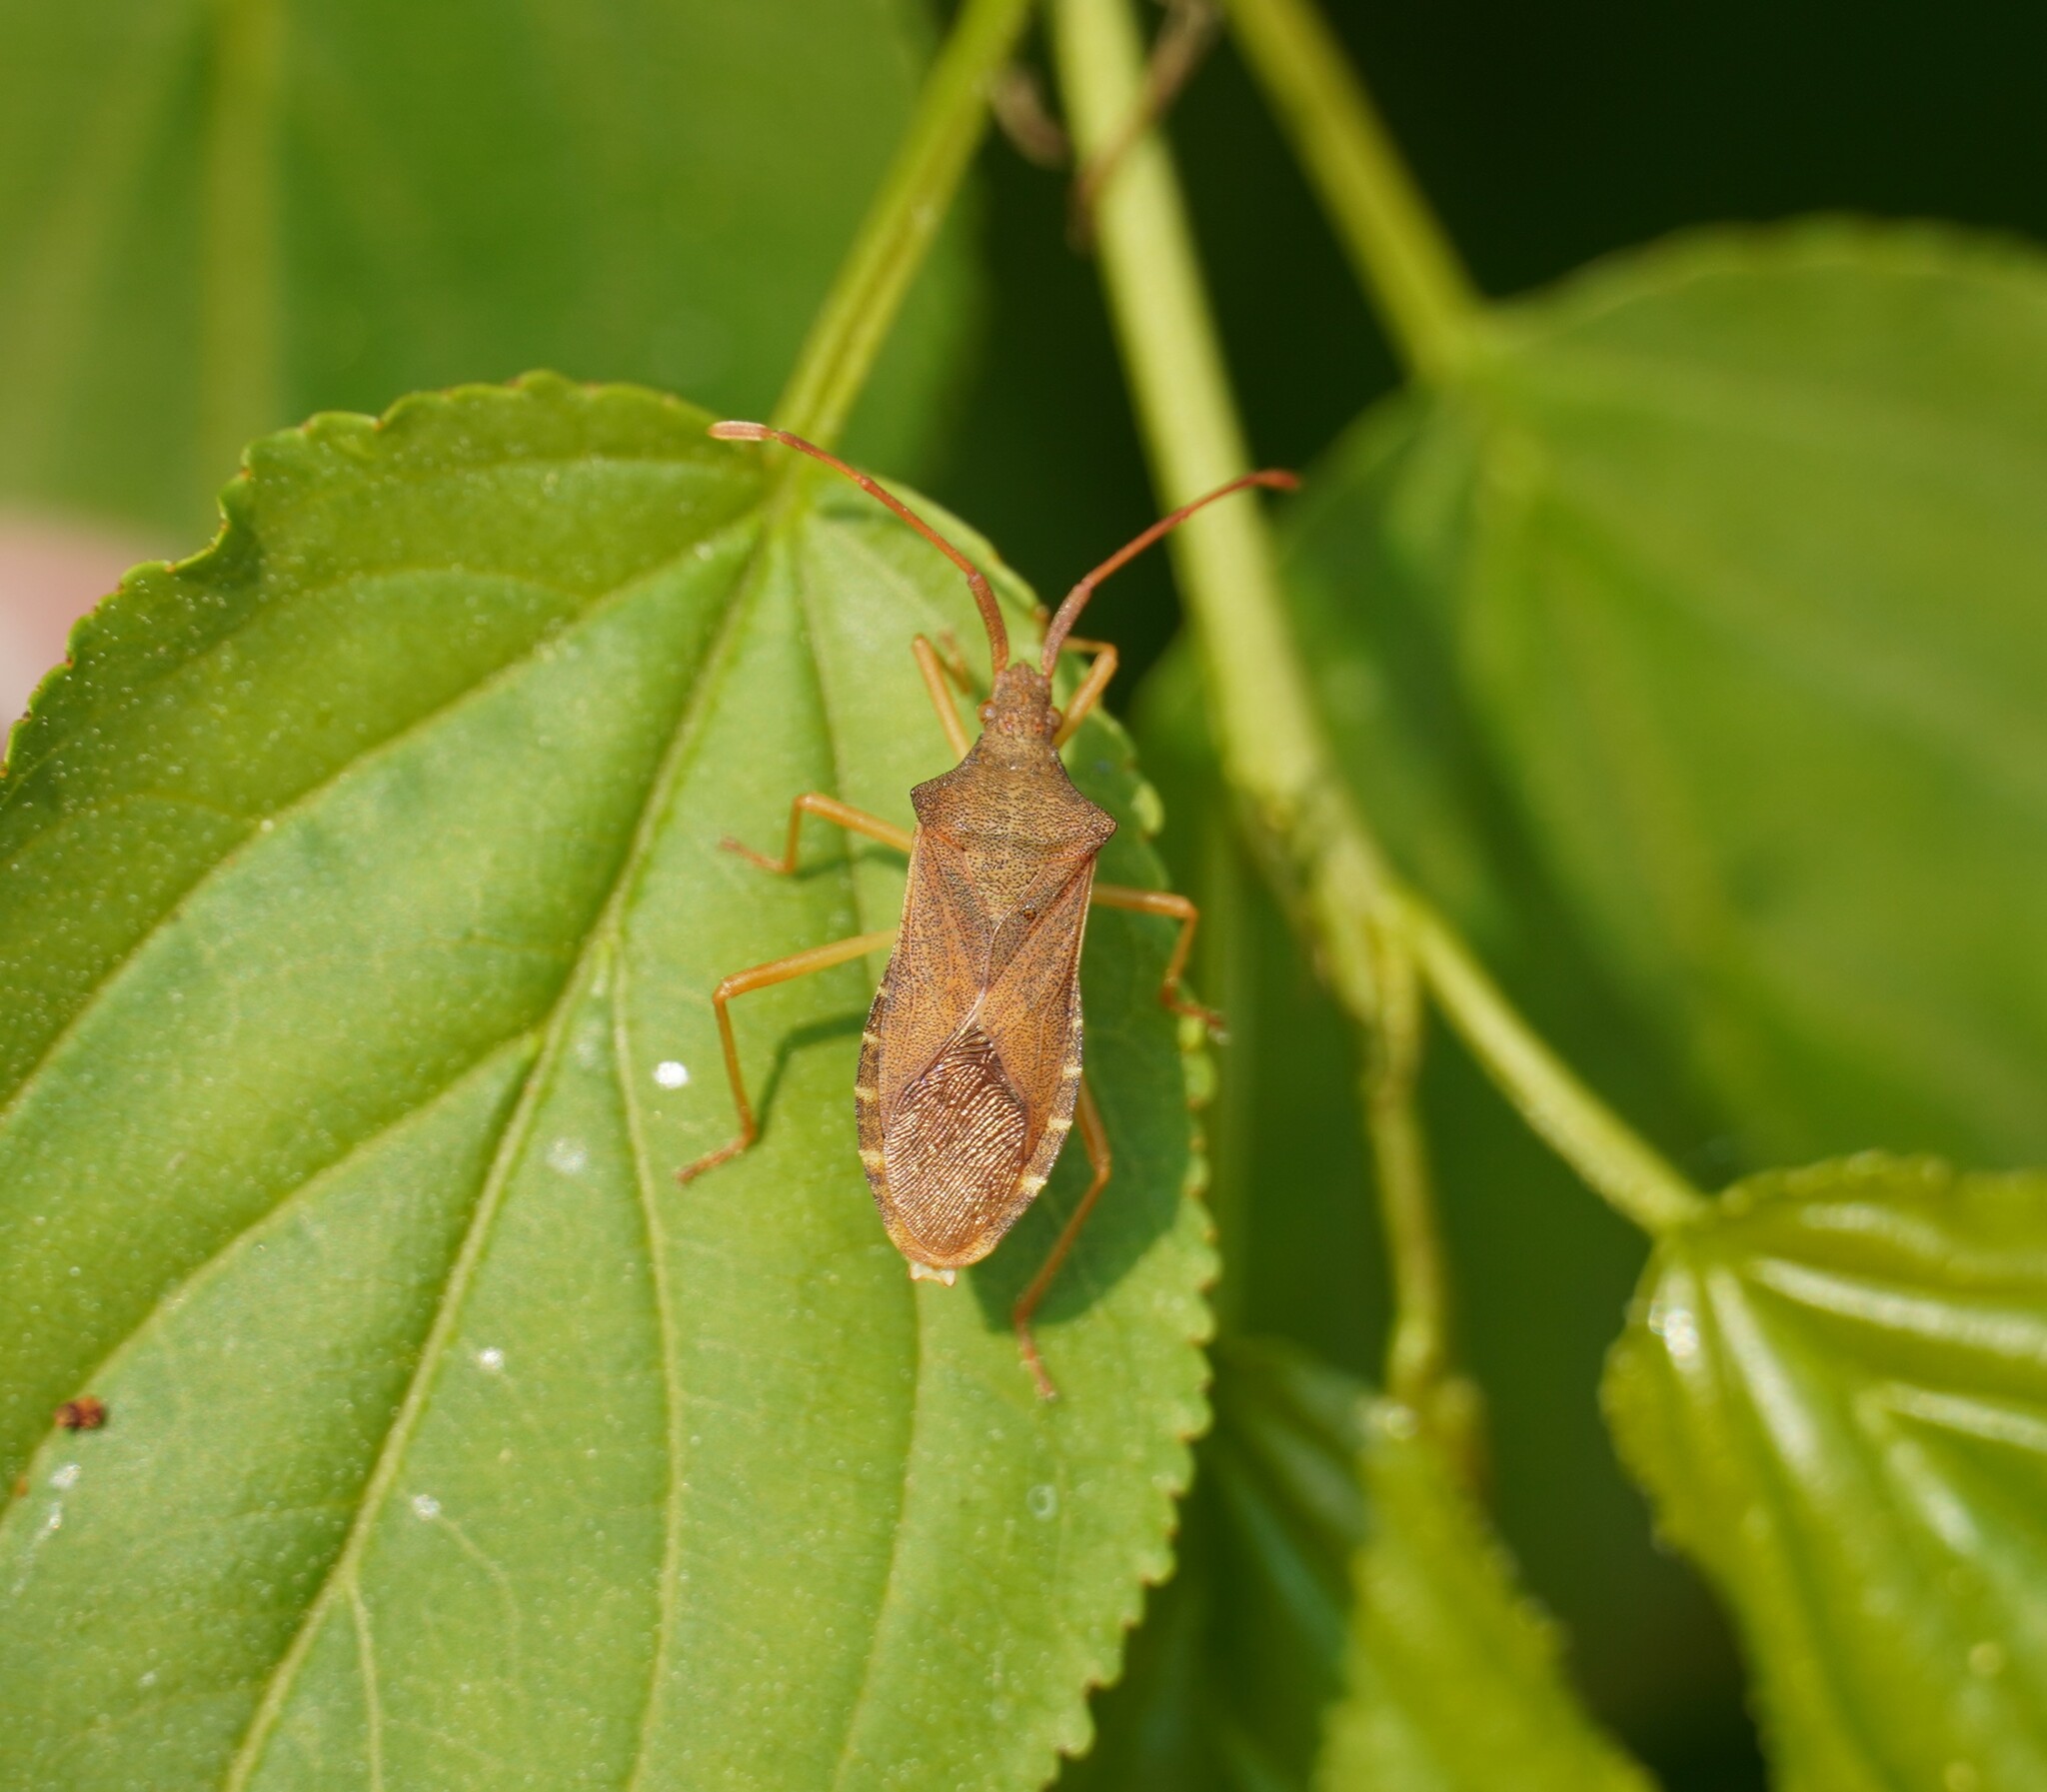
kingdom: Animalia
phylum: Arthropoda
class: Insecta
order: Hemiptera
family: Coreidae
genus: Gonocerus
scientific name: Gonocerus acuteangulatus
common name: Box bug
